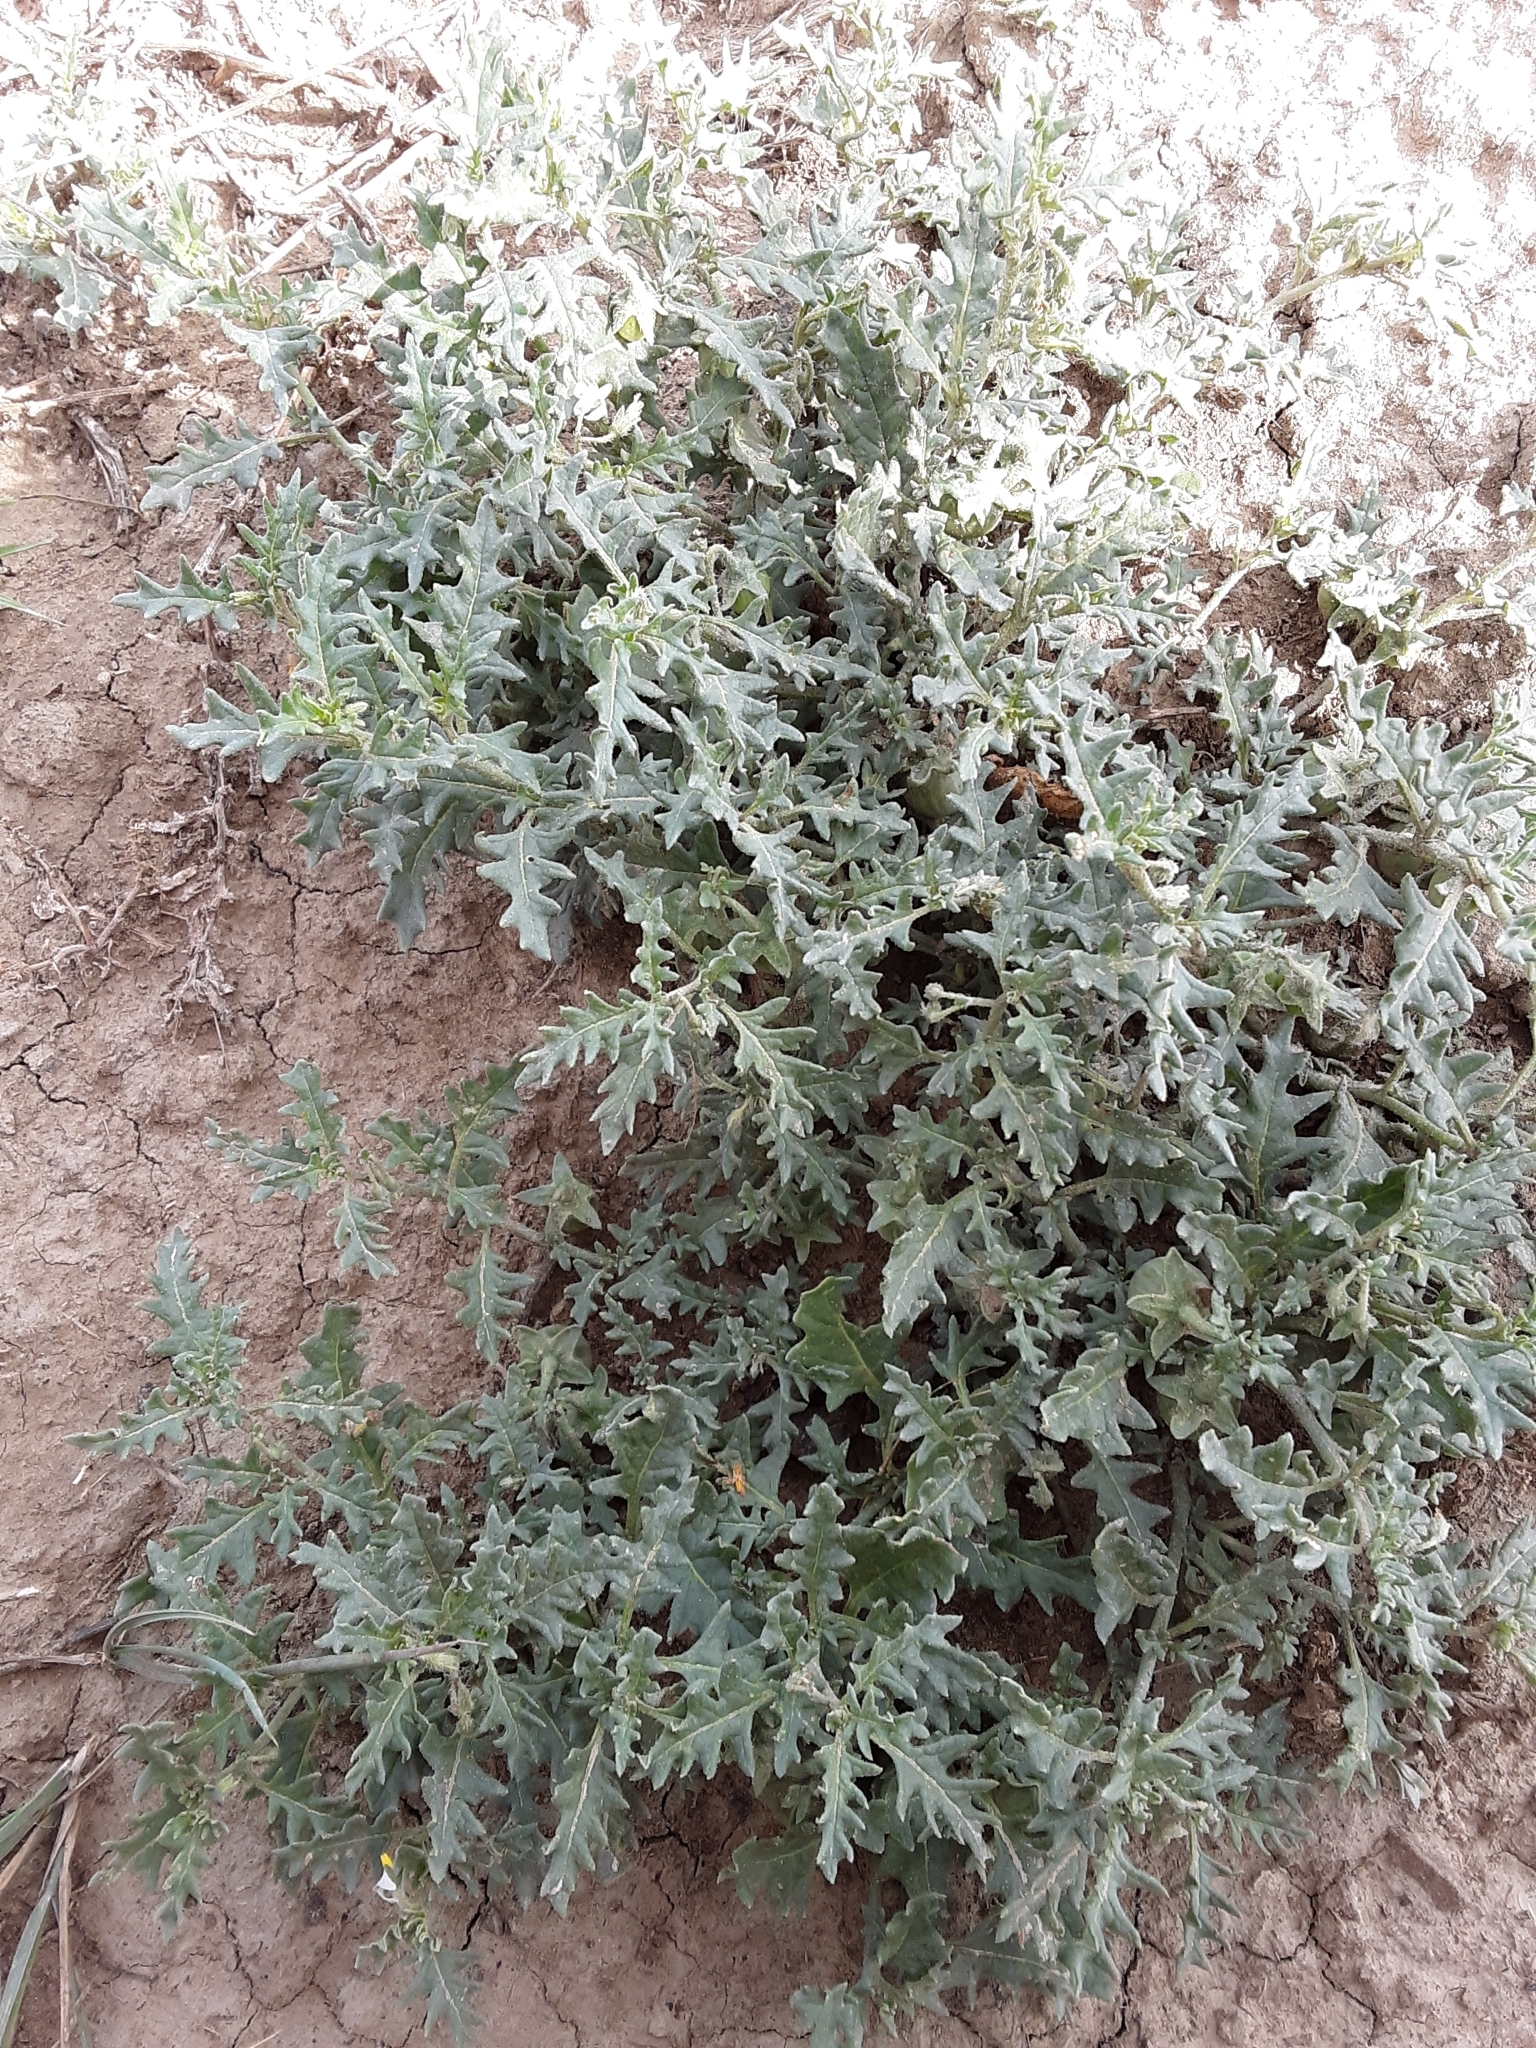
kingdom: Plantae
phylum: Tracheophyta
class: Magnoliopsida
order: Solanales
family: Solanaceae
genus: Solanum
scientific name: Solanum triflorum
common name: Small nightshade
